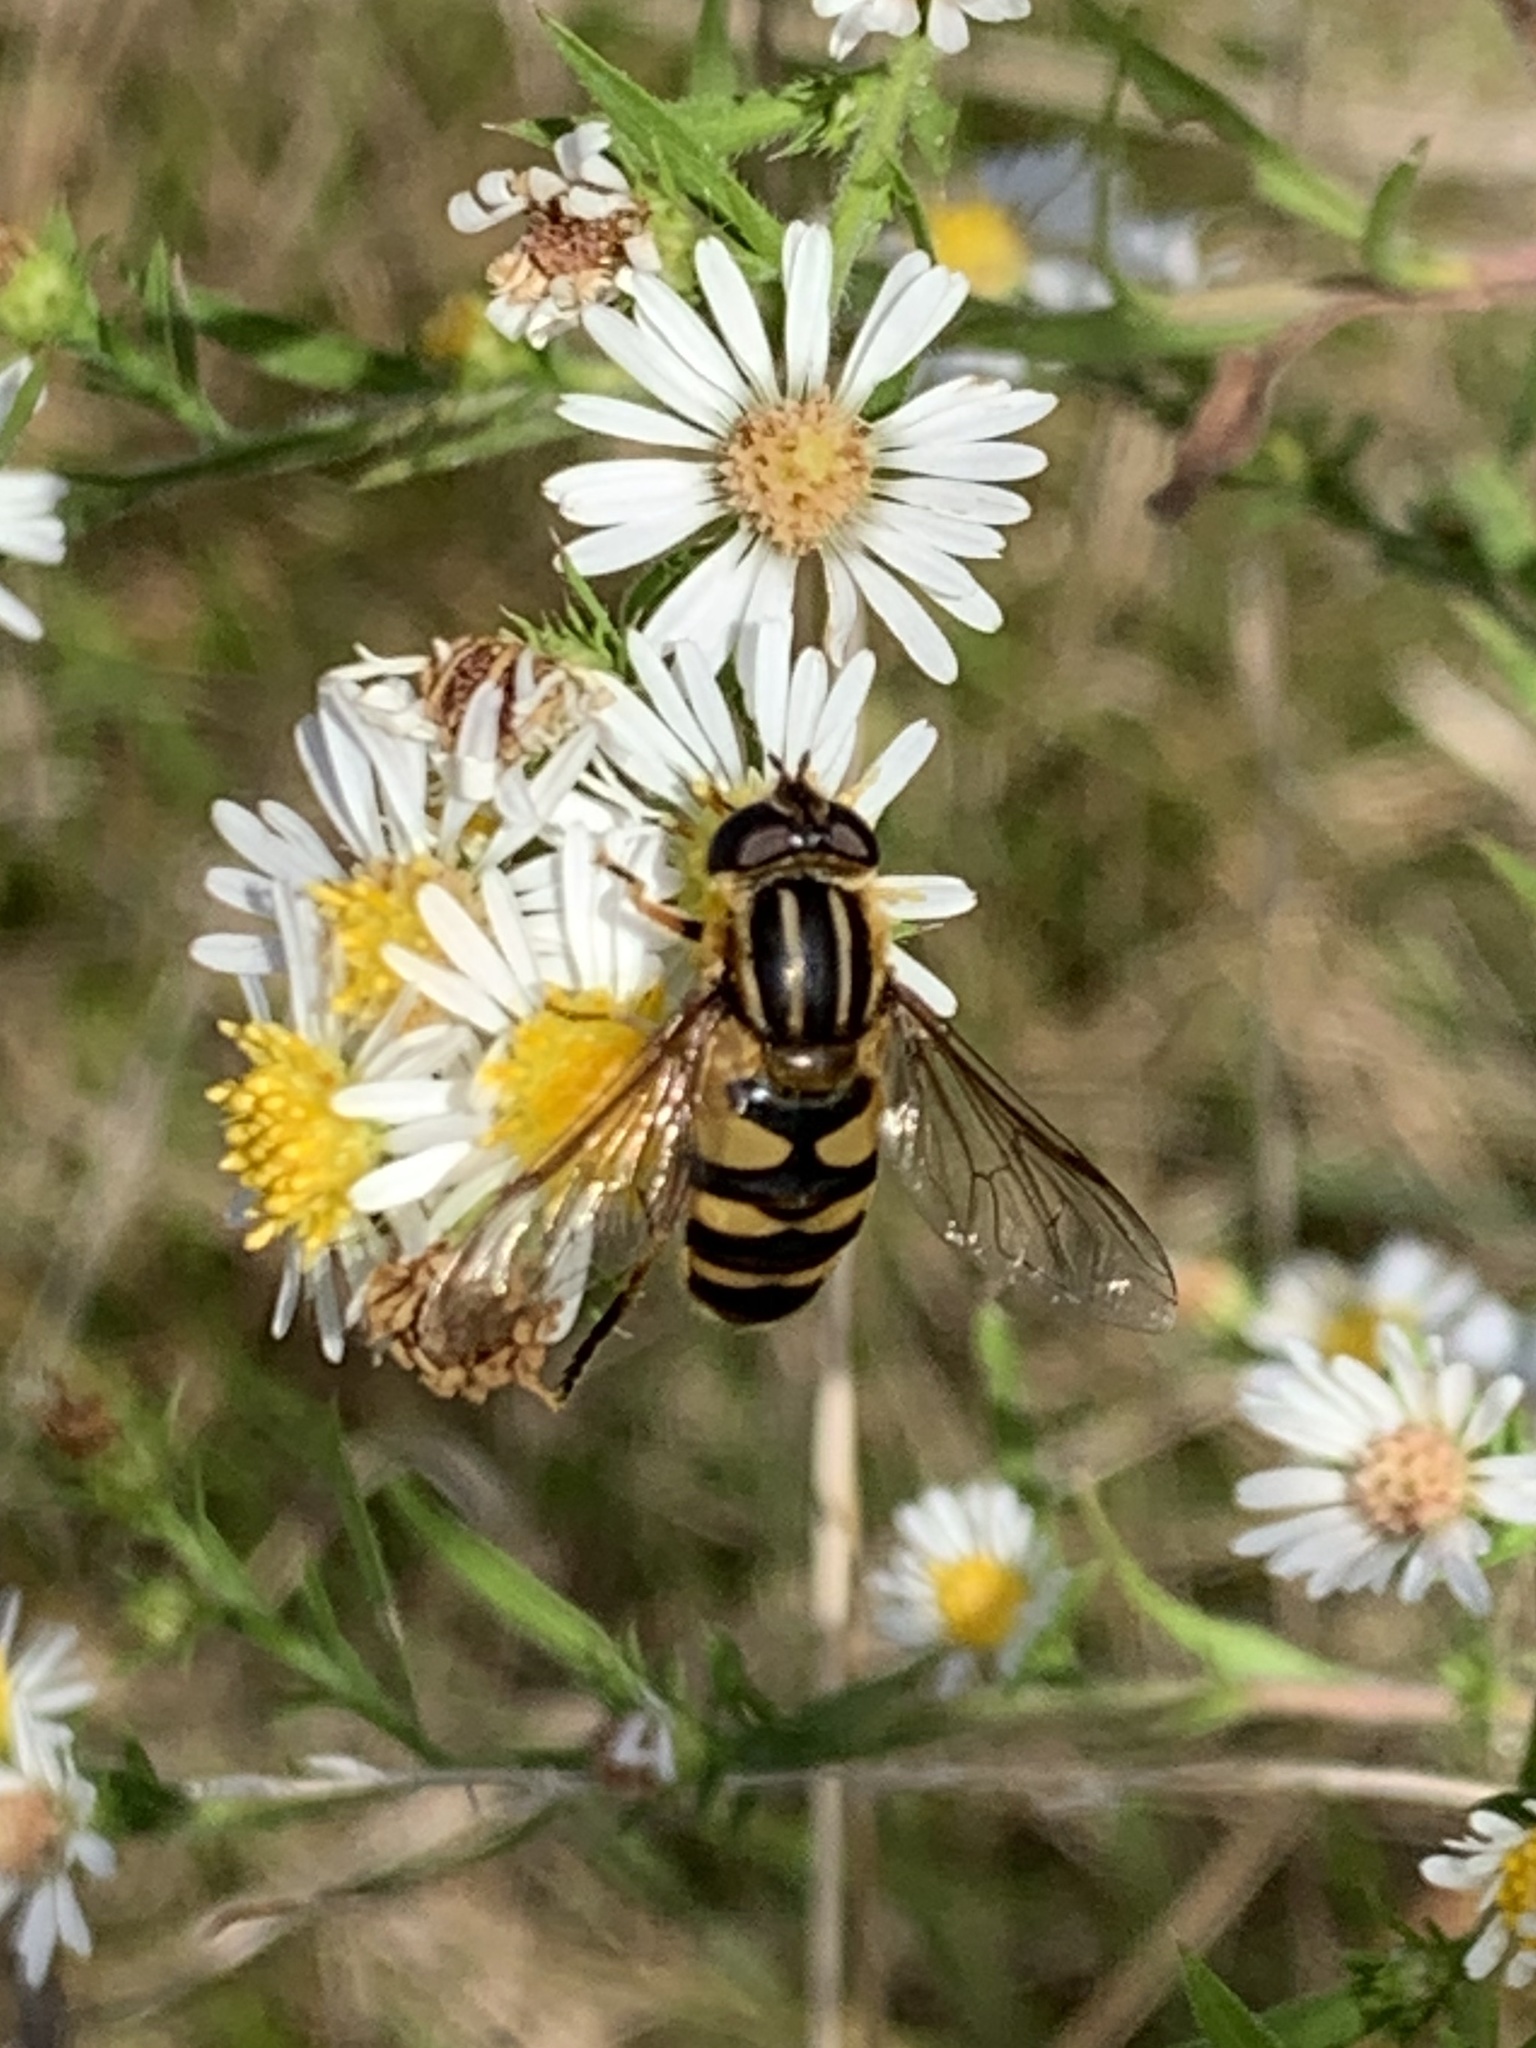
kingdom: Animalia
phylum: Arthropoda
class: Insecta
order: Diptera
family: Syrphidae
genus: Helophilus
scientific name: Helophilus fasciatus
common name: Narrow-headed marsh fly
